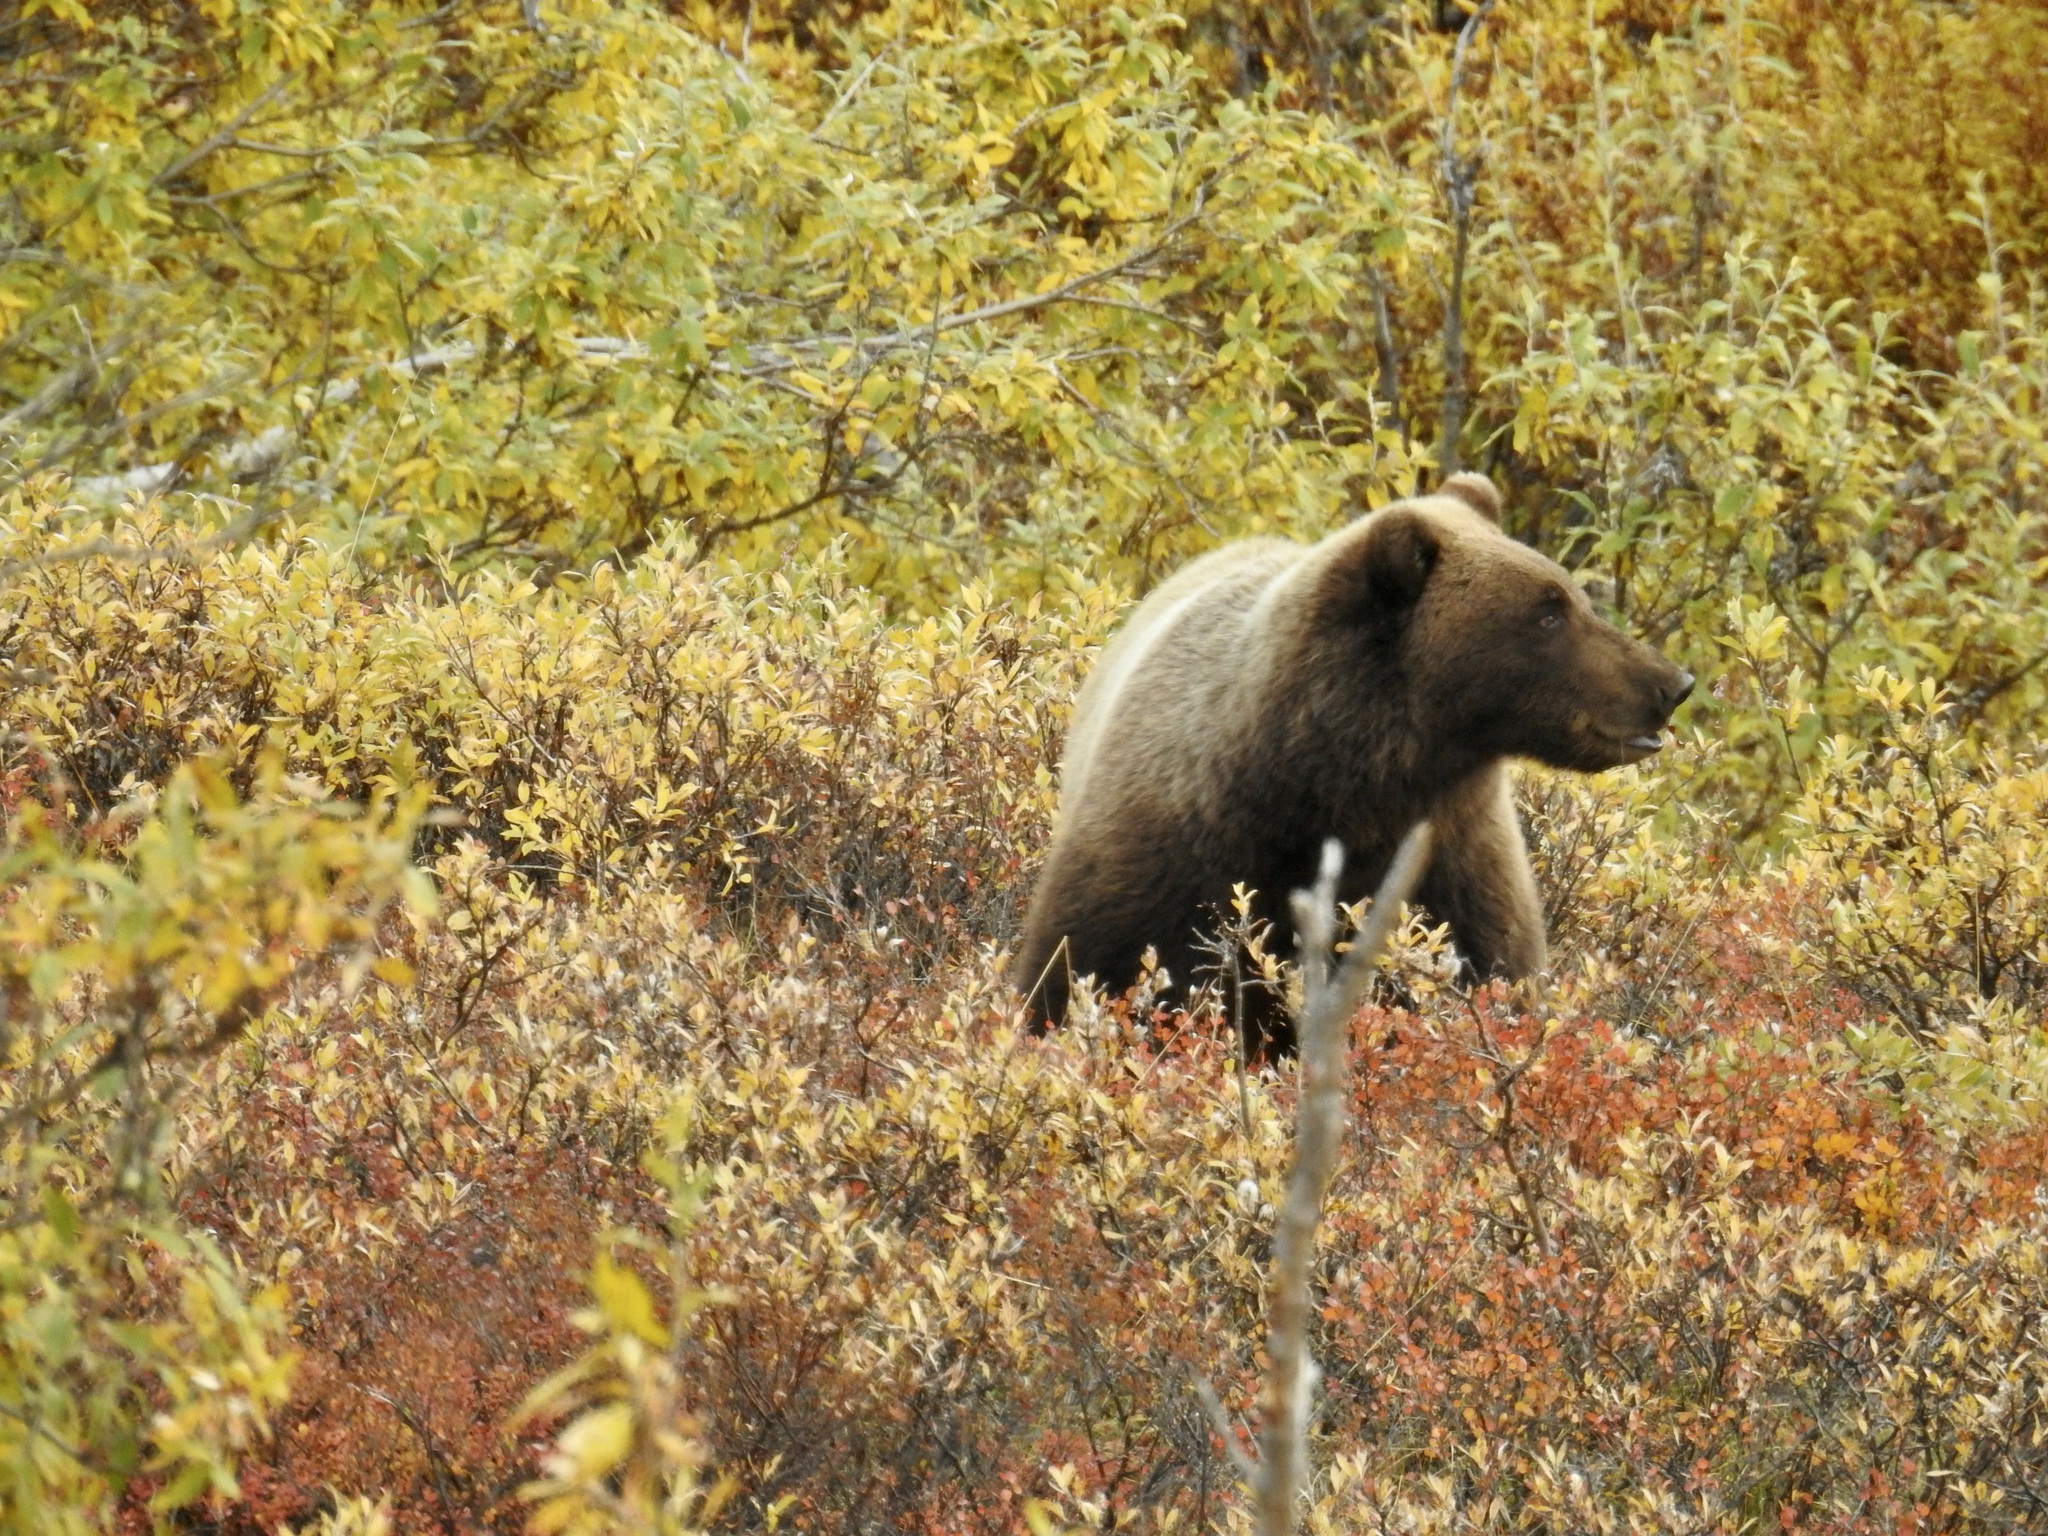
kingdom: Animalia
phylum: Chordata
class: Mammalia
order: Carnivora
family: Ursidae
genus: Ursus
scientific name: Ursus arctos
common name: Brown bear
